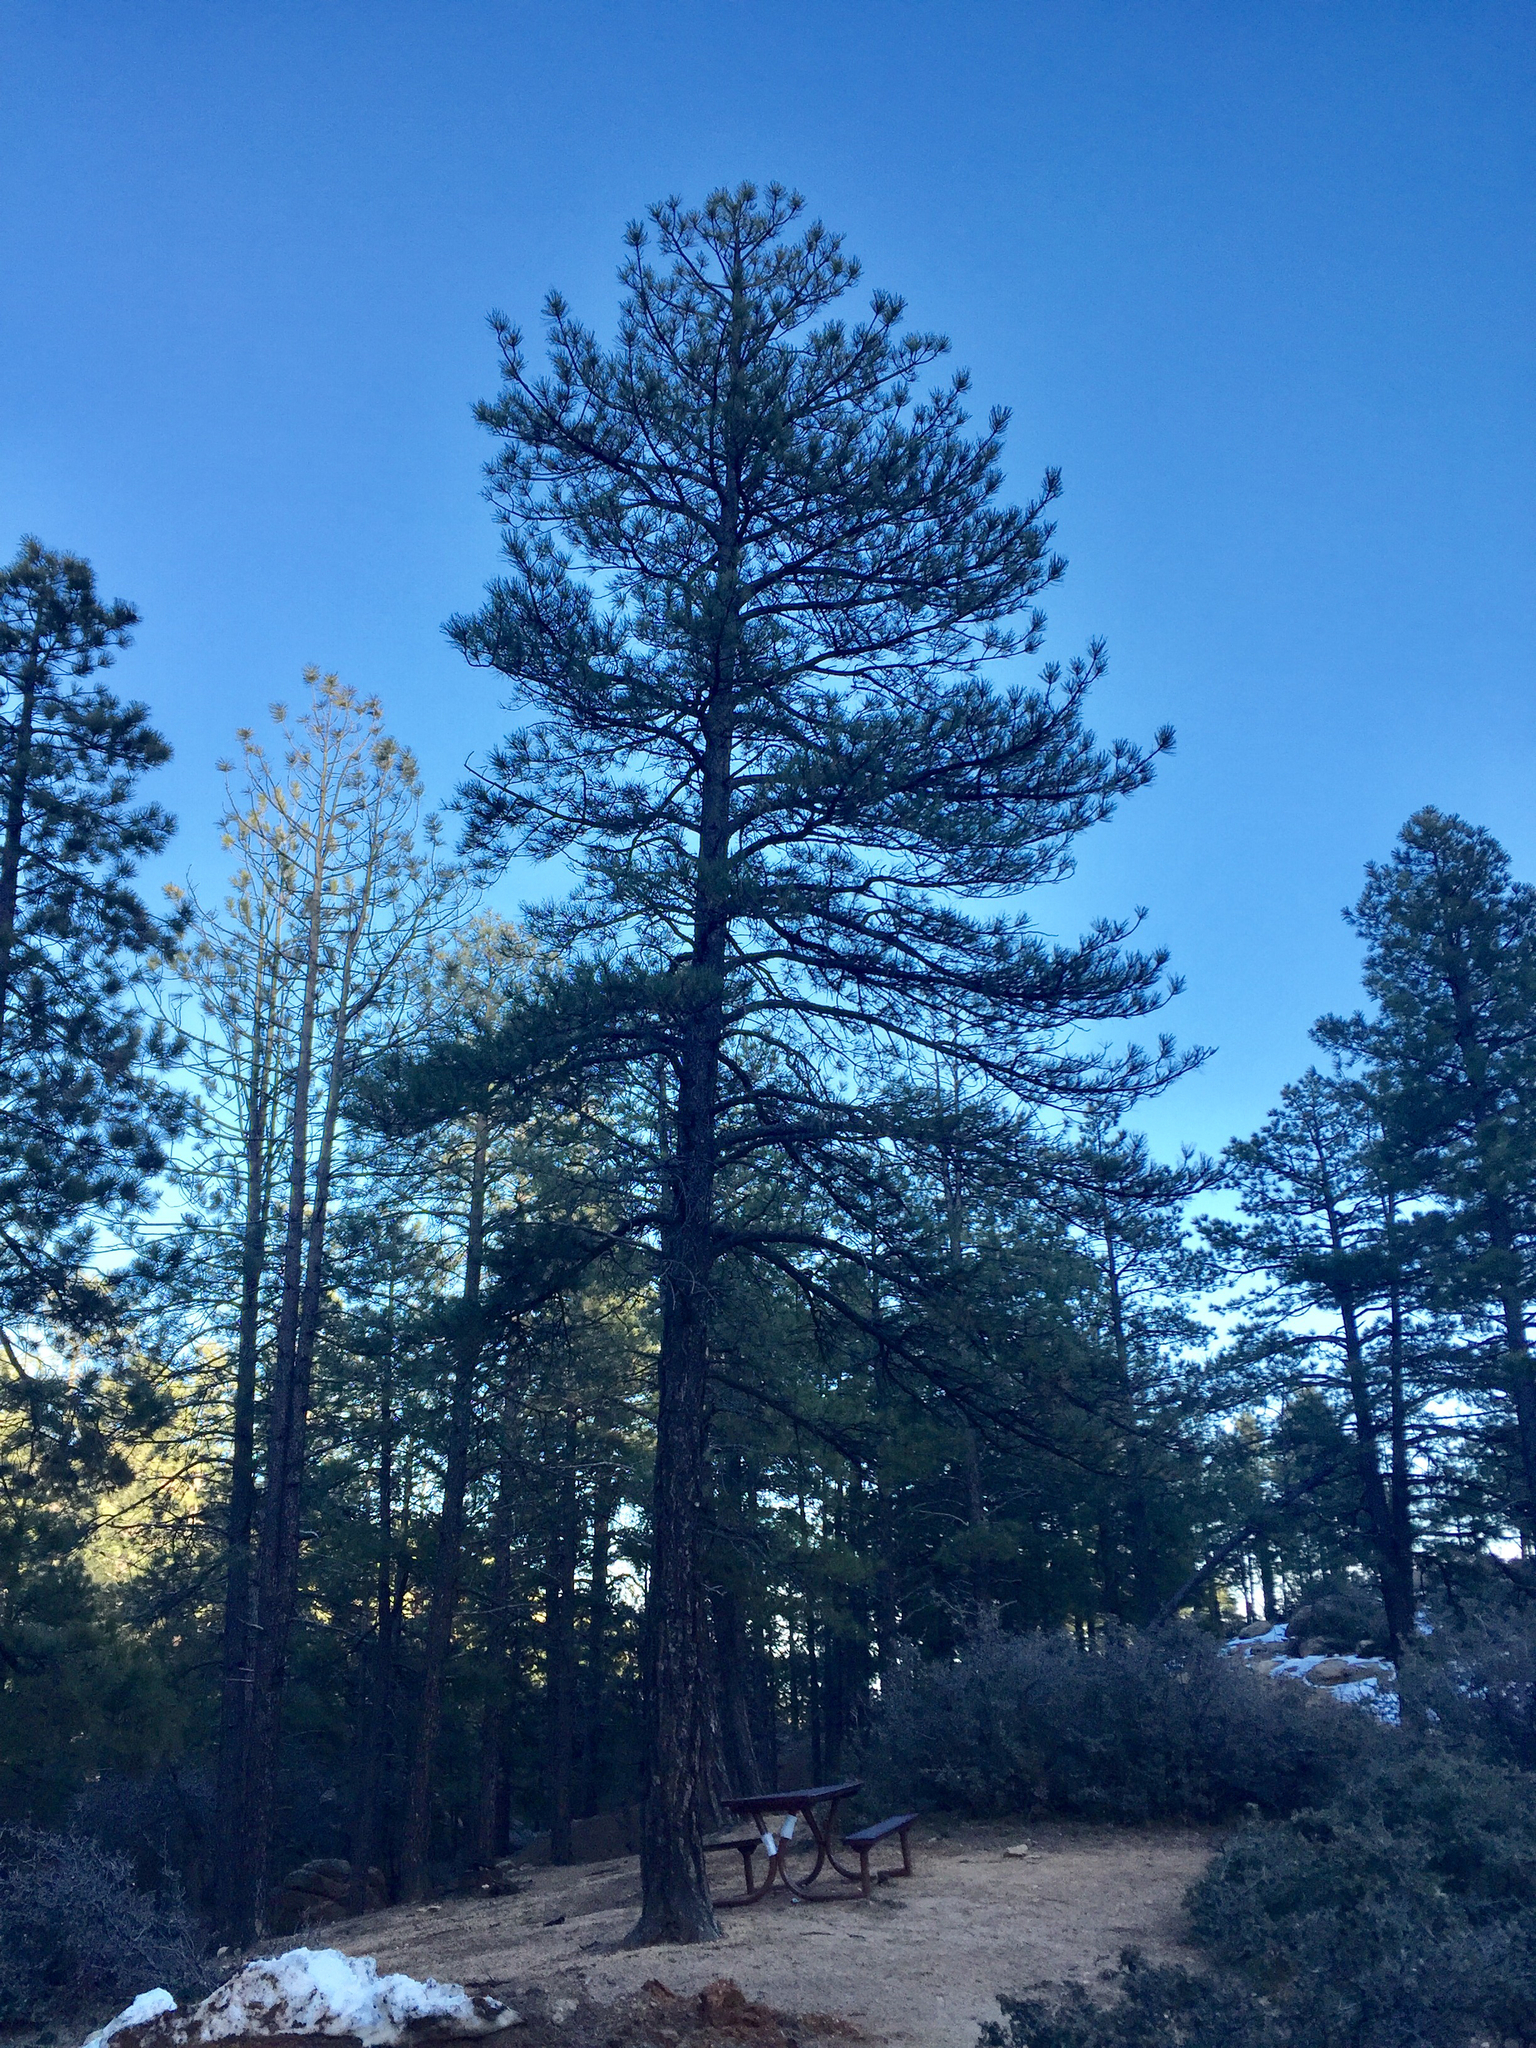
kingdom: Plantae
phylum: Tracheophyta
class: Pinopsida
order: Pinales
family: Pinaceae
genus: Pinus
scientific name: Pinus ponderosa
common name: Western yellow-pine
